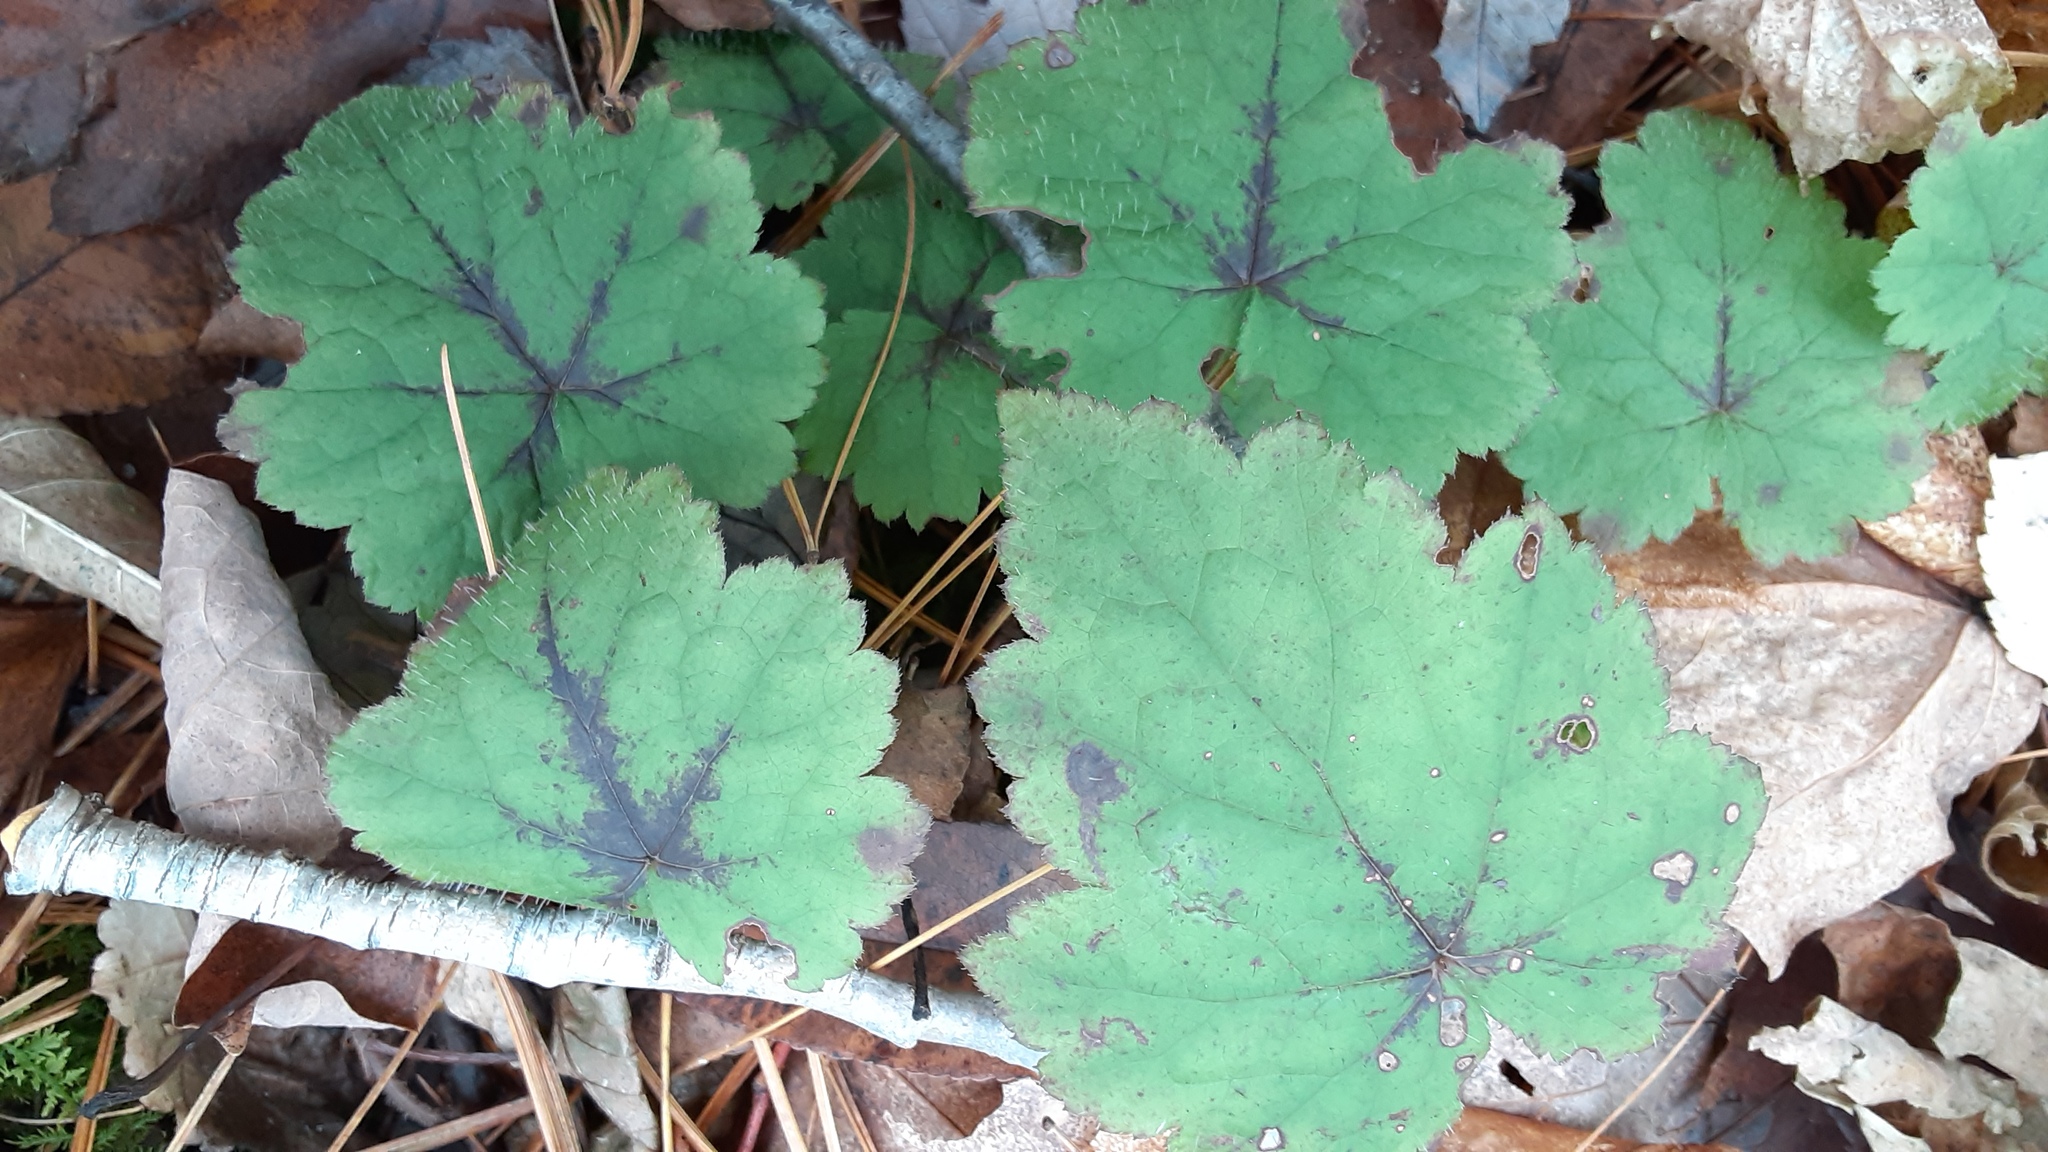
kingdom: Plantae
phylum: Tracheophyta
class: Magnoliopsida
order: Saxifragales
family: Saxifragaceae
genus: Tiarella
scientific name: Tiarella stolonifera
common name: Stoloniferous foamflower
